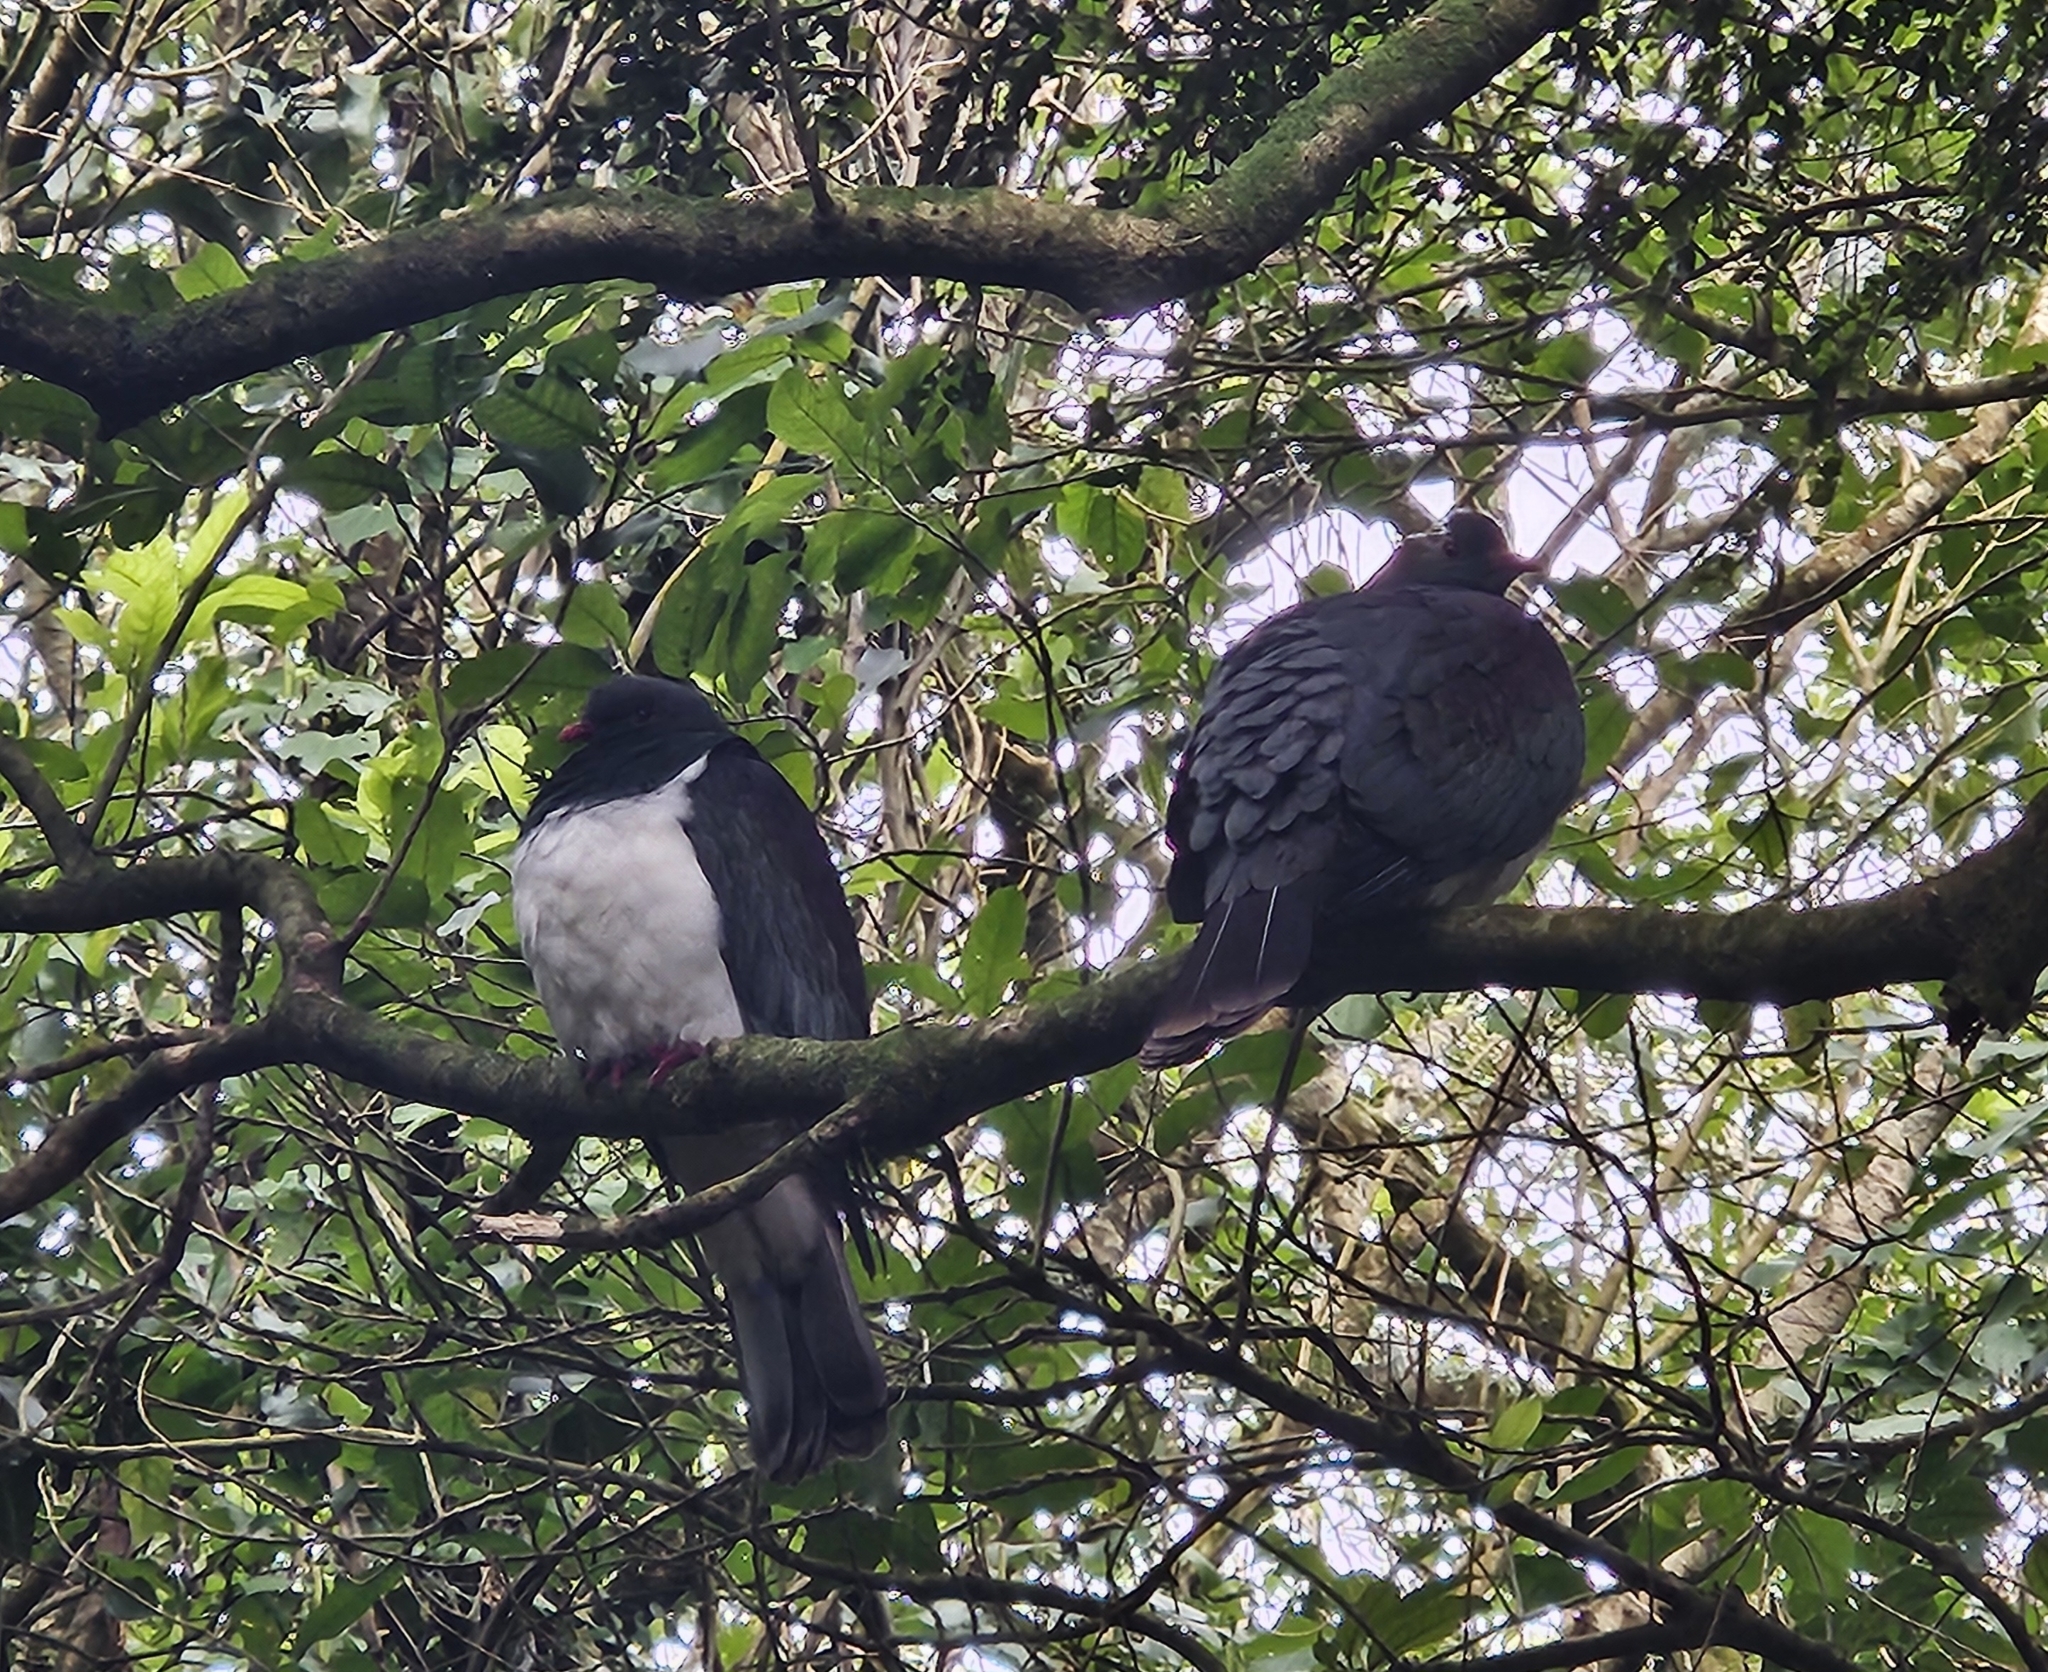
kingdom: Animalia
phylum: Chordata
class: Aves
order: Columbiformes
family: Columbidae
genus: Hemiphaga
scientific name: Hemiphaga novaeseelandiae
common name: New zealand pigeon
